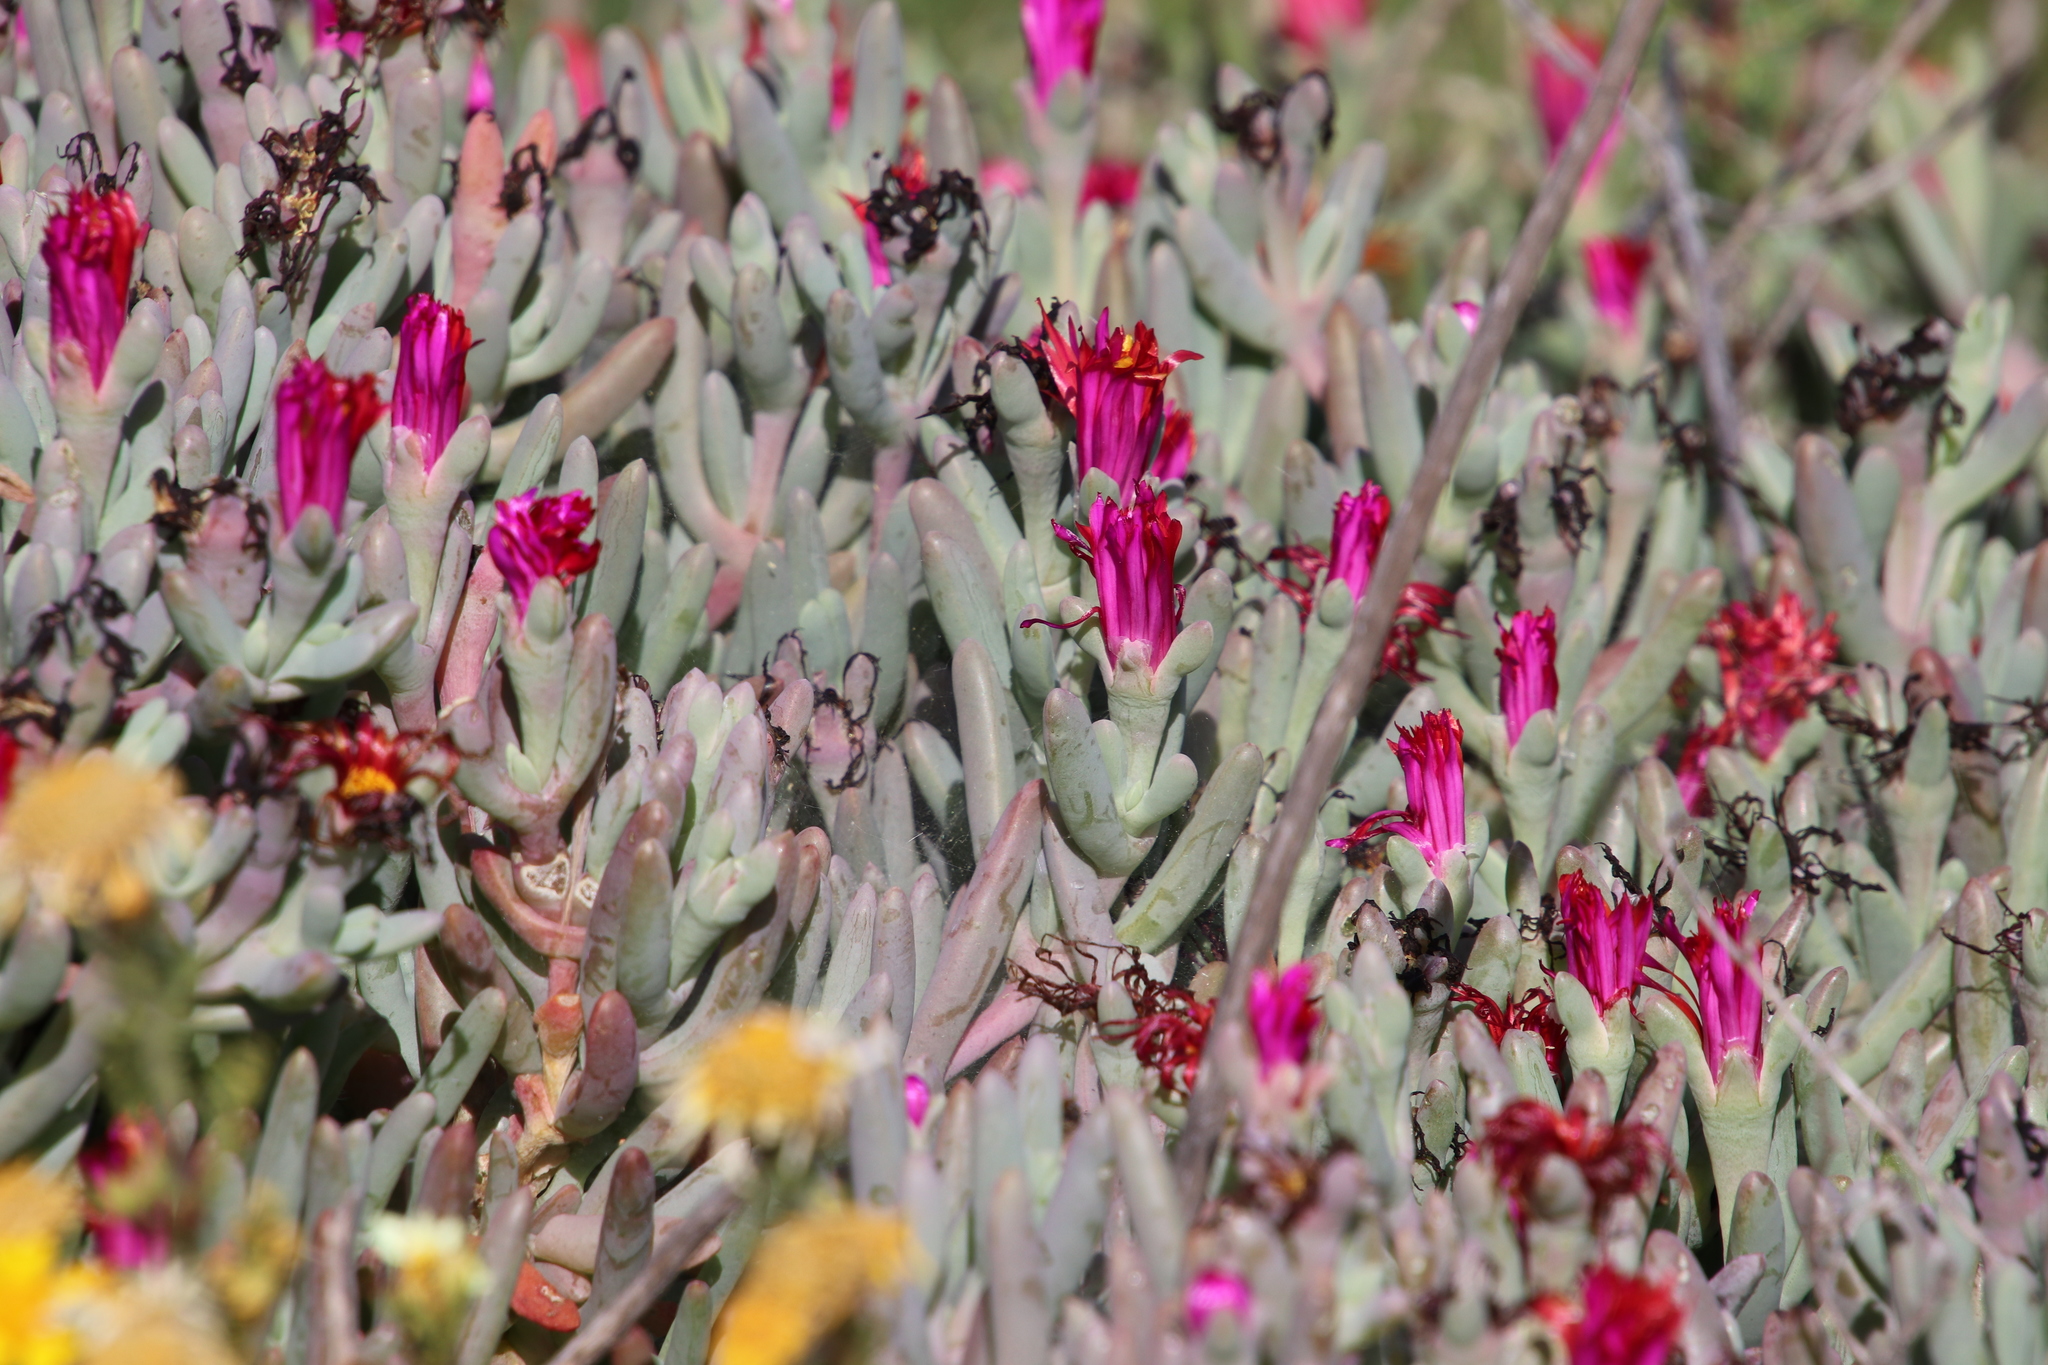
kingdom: Plantae
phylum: Tracheophyta
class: Magnoliopsida
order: Caryophyllales
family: Aizoaceae
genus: Malephora
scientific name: Malephora crocea
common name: Coppery mesemb
